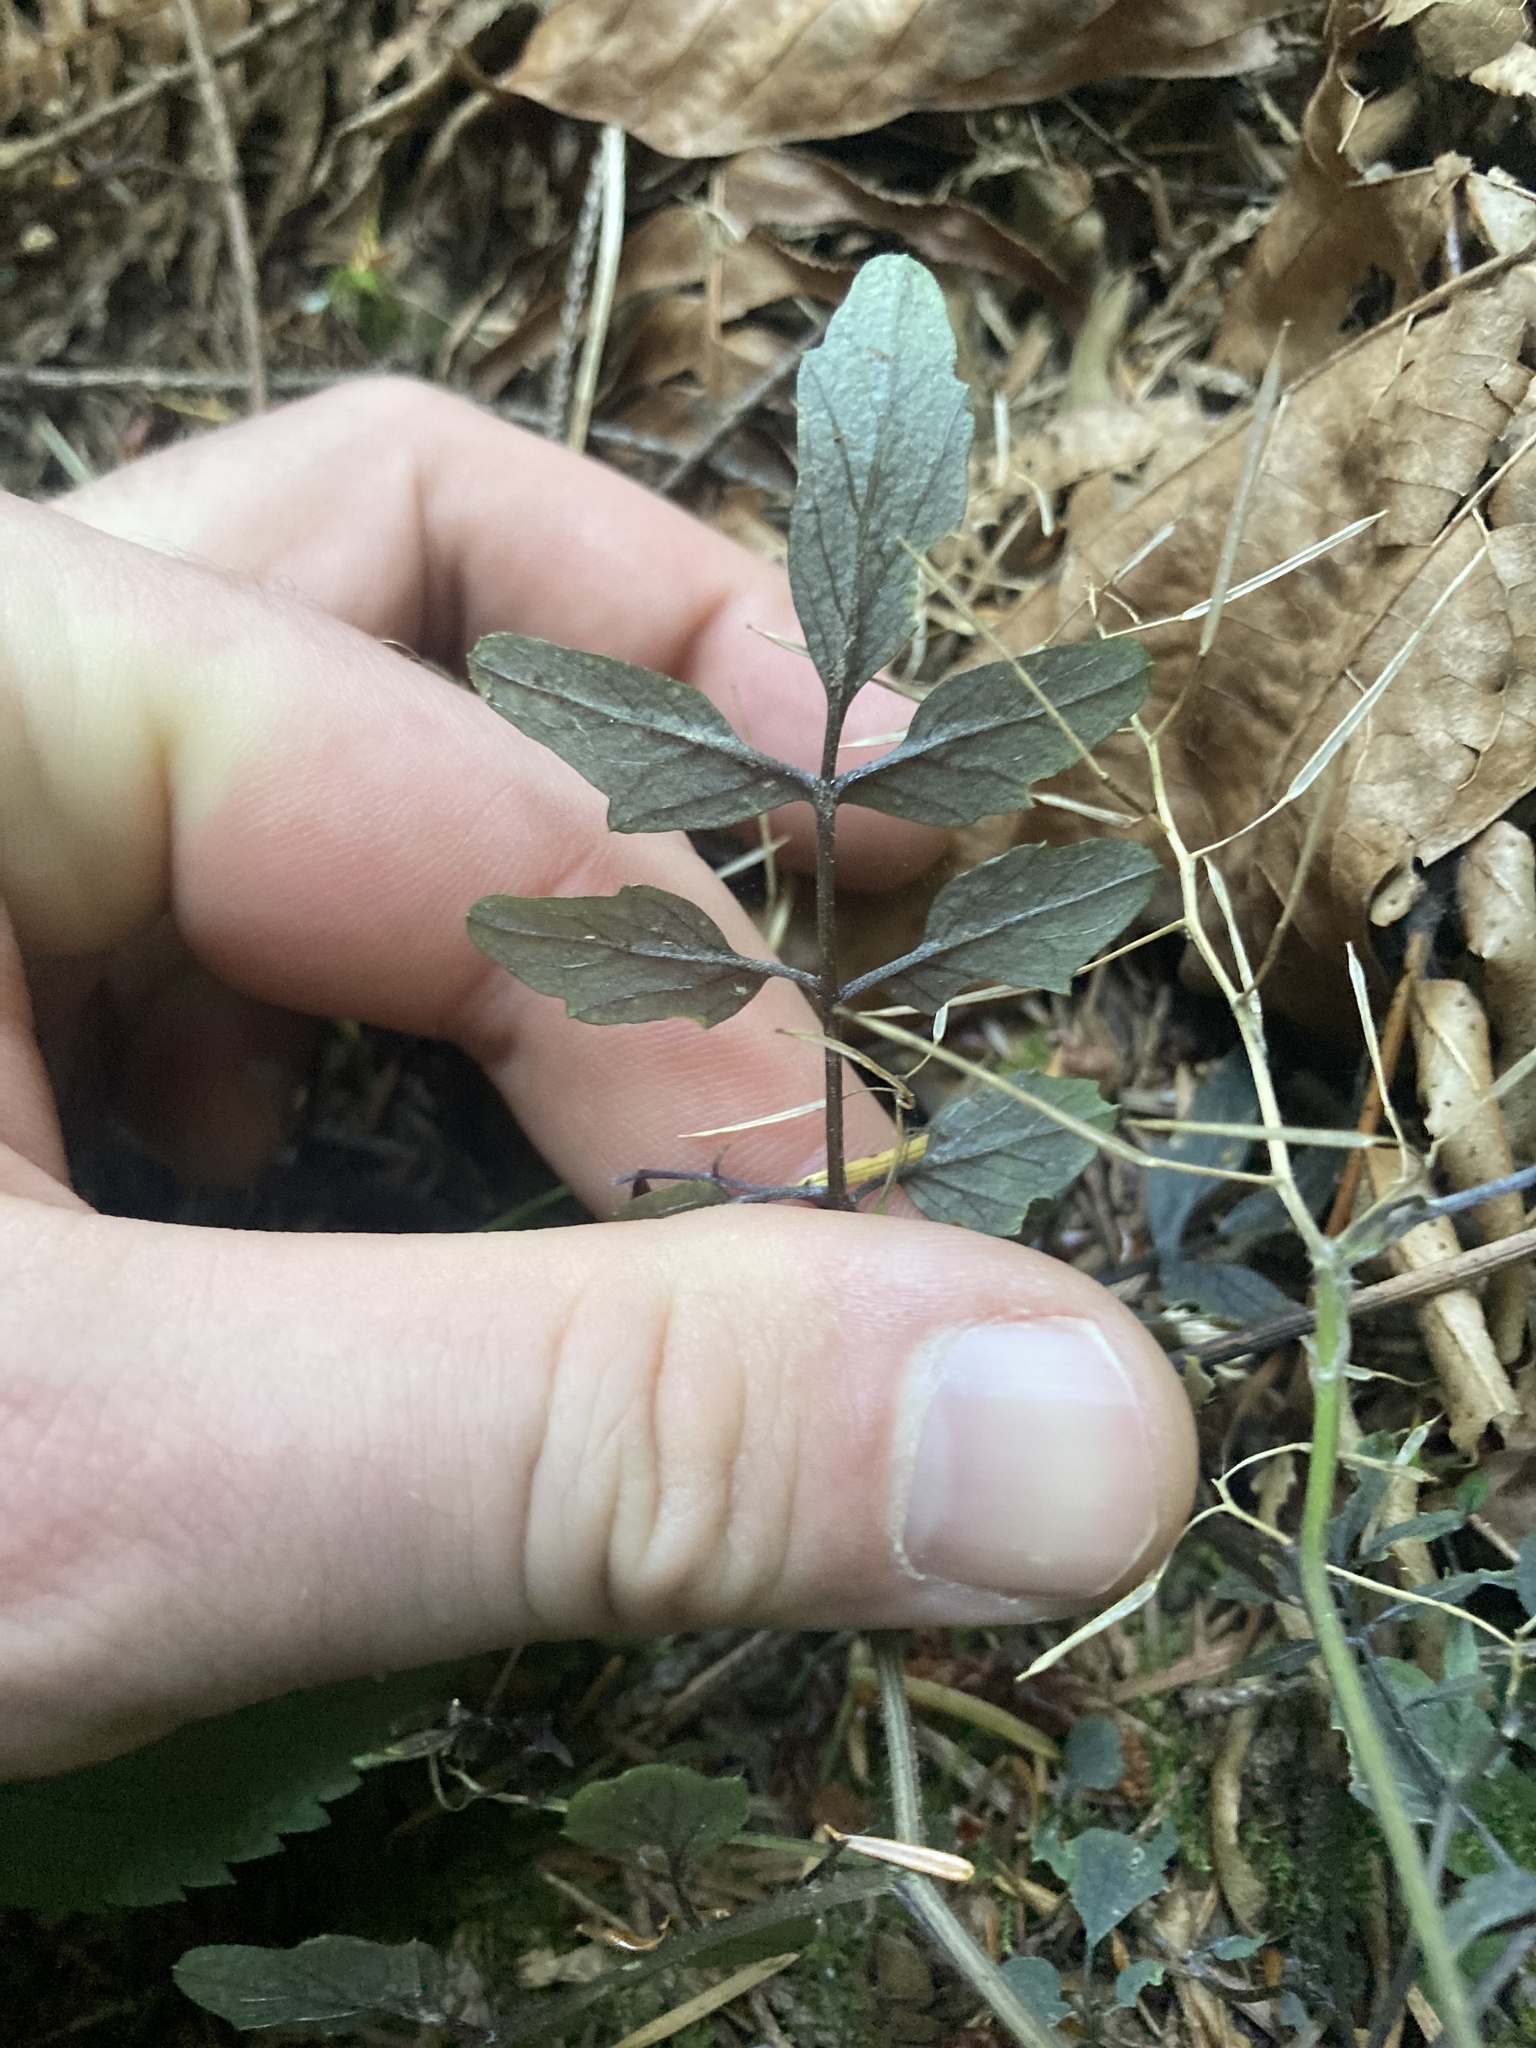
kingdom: Plantae
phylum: Tracheophyta
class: Magnoliopsida
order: Brassicales
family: Brassicaceae
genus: Cardamine
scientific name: Cardamine flexuosa
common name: Woodland bittercress
